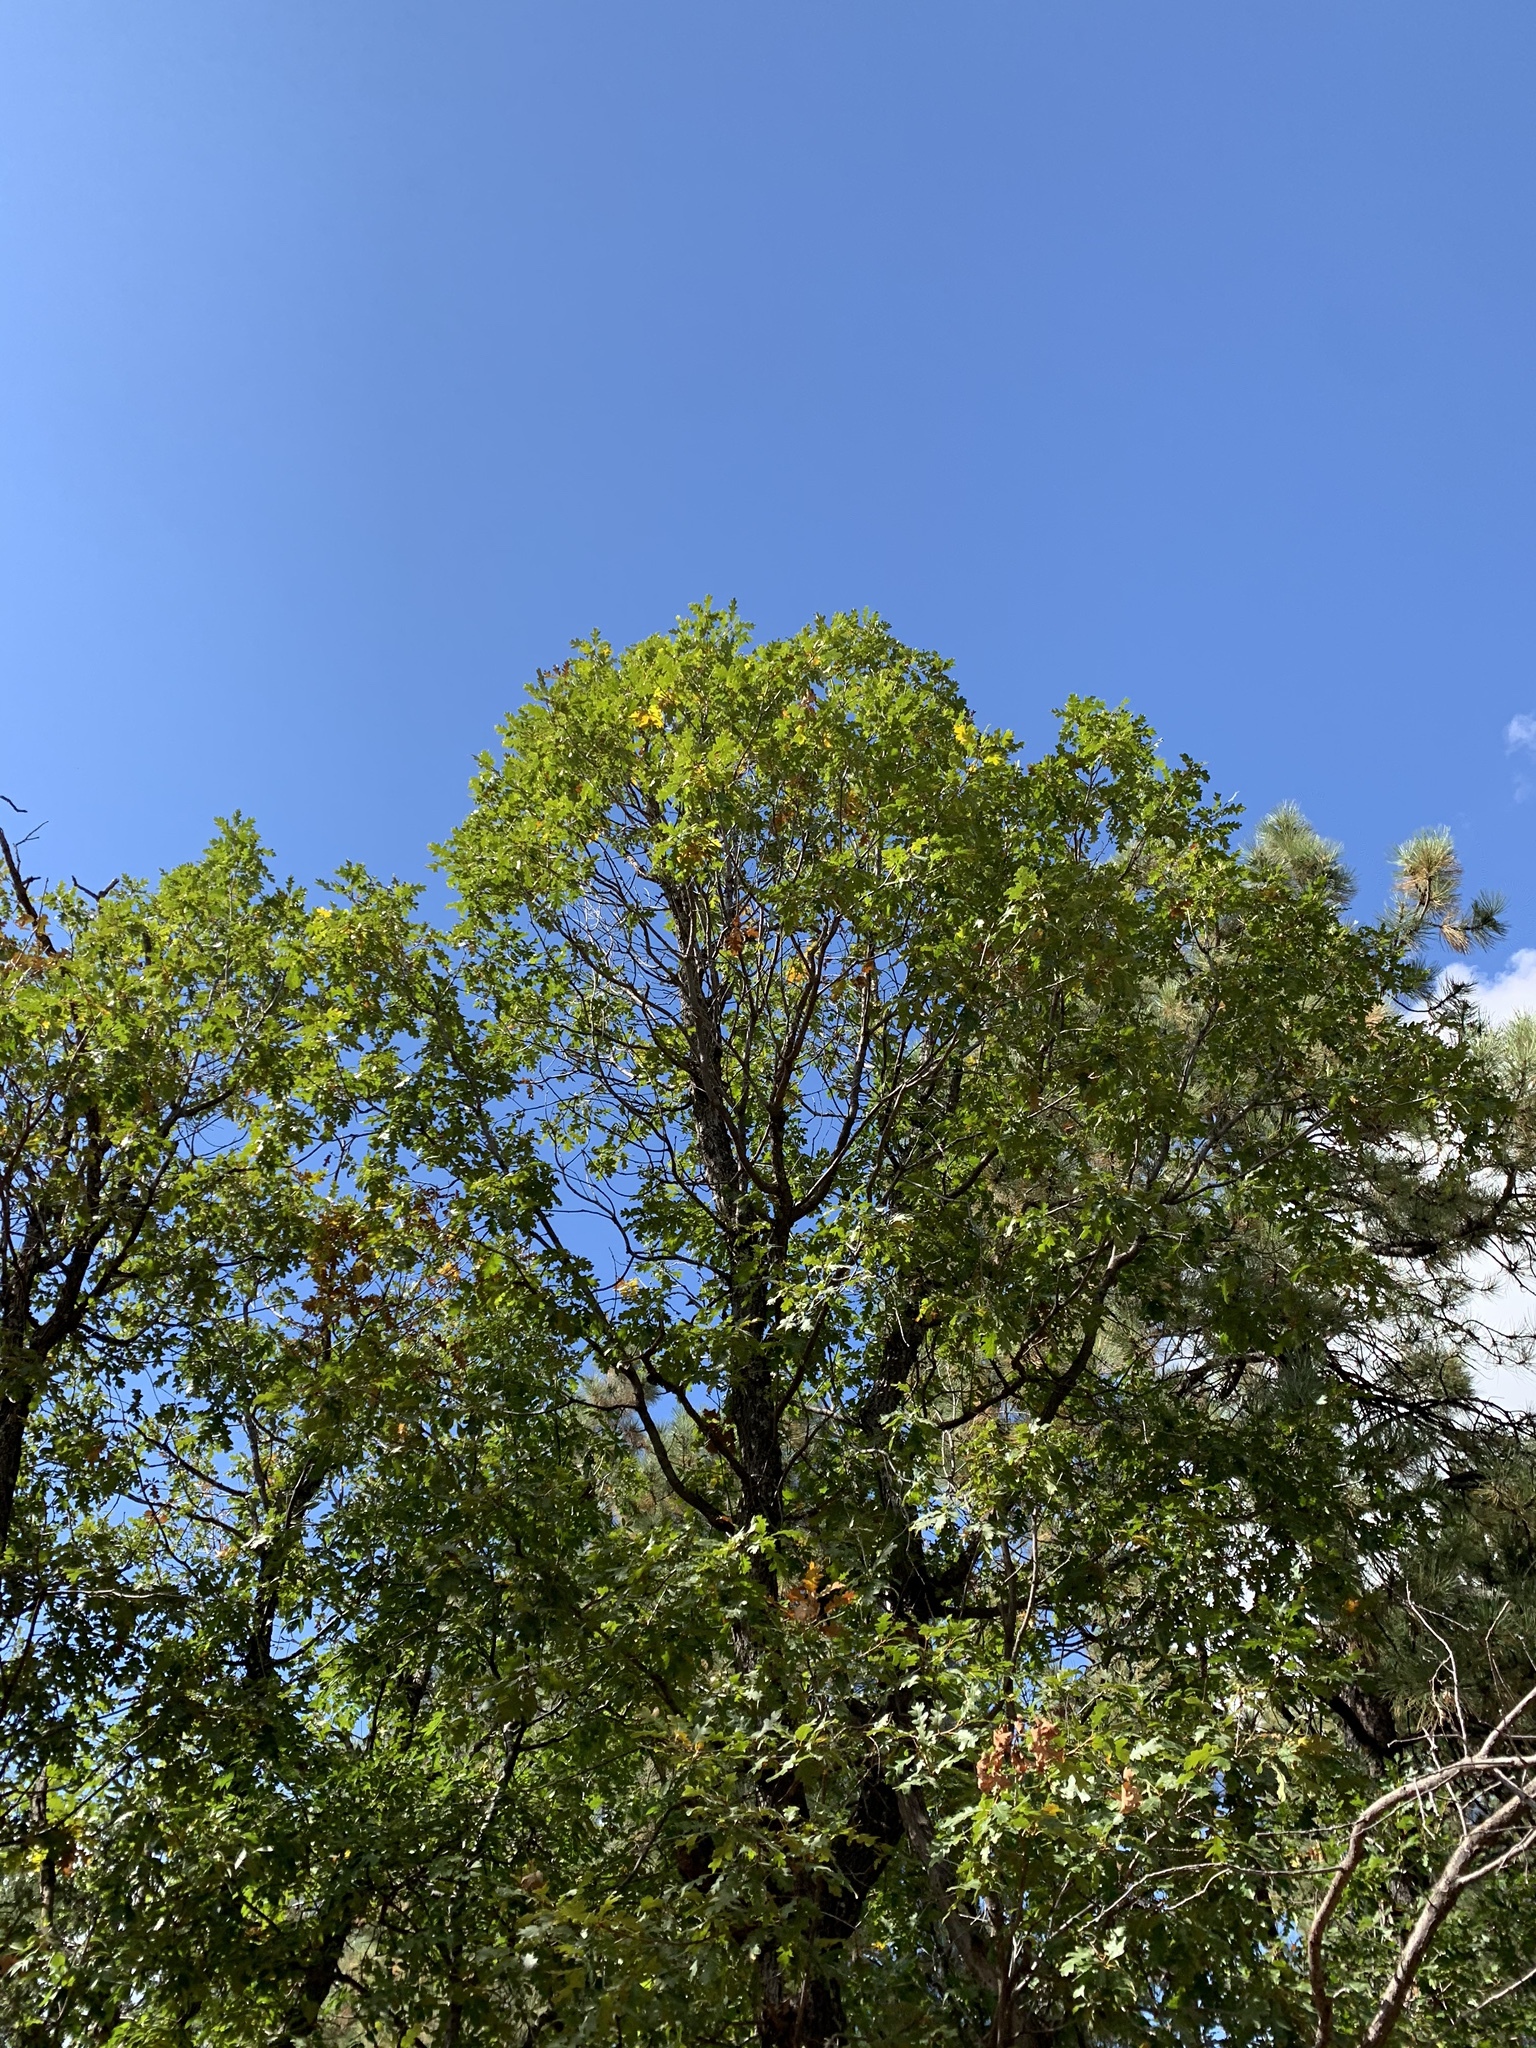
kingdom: Plantae
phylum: Tracheophyta
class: Magnoliopsida
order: Fagales
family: Fagaceae
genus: Quercus
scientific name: Quercus gambelii
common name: Gambel oak
